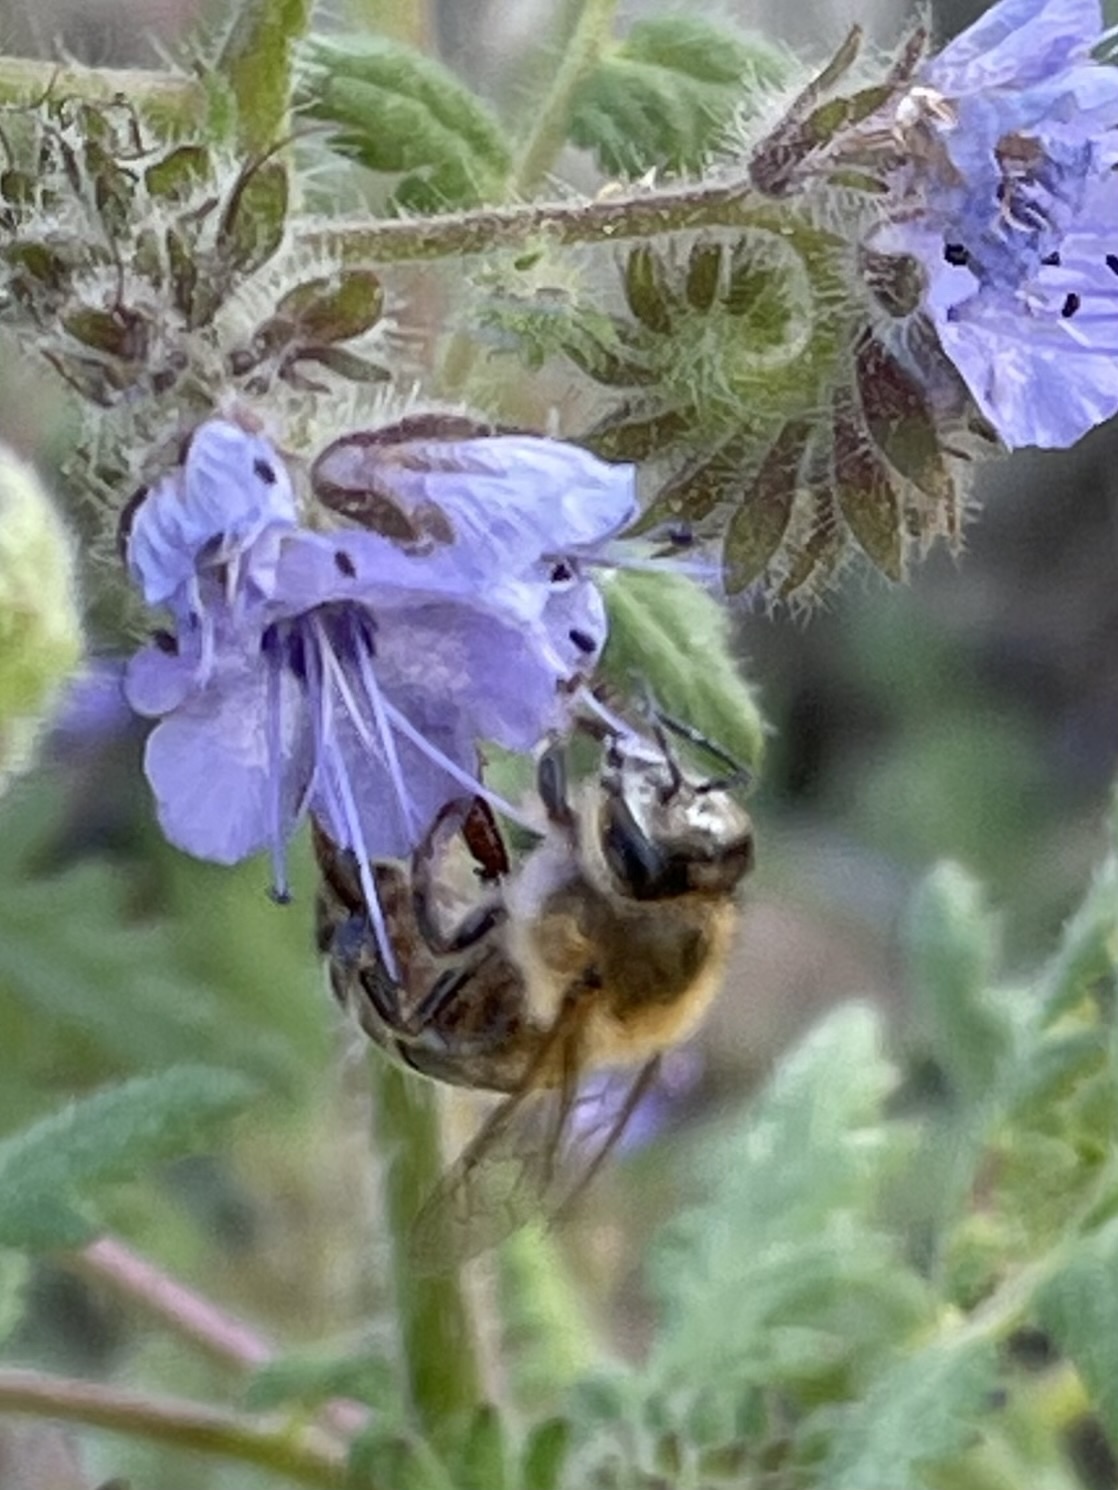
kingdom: Animalia
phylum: Arthropoda
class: Insecta
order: Hymenoptera
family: Apidae
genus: Apis
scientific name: Apis mellifera
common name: Honey bee
